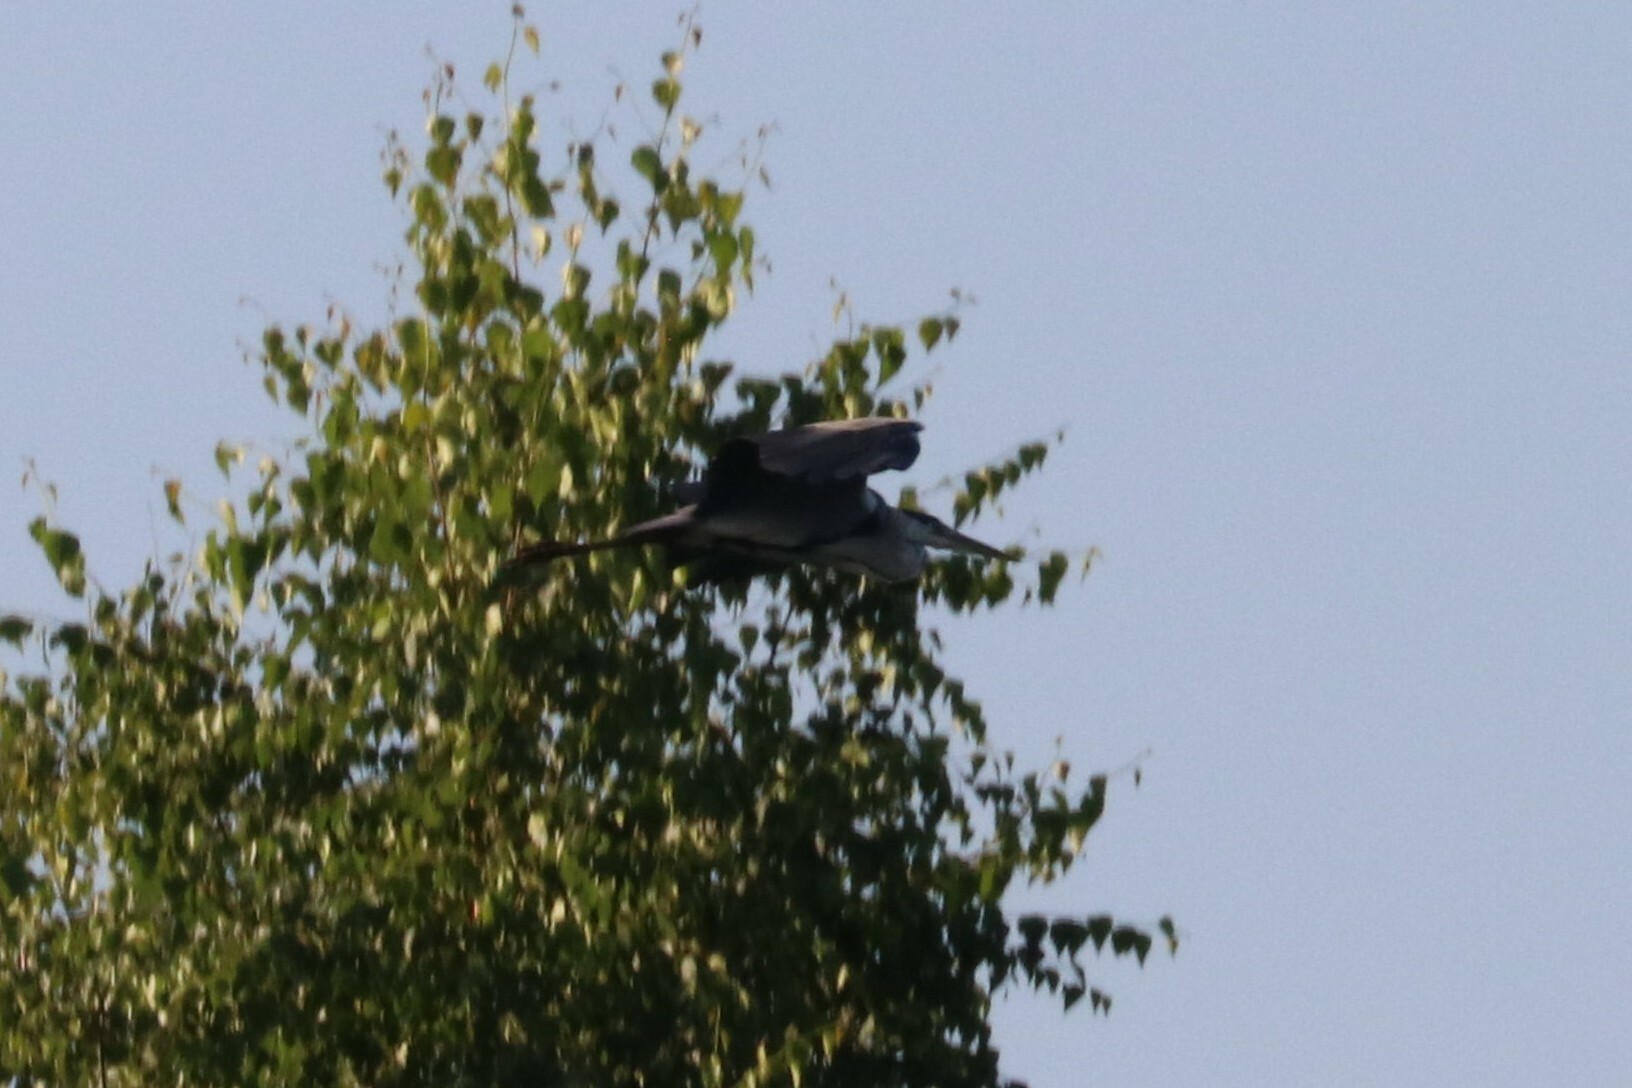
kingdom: Animalia
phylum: Chordata
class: Aves
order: Pelecaniformes
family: Ardeidae
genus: Ardea
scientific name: Ardea cinerea
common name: Grey heron
